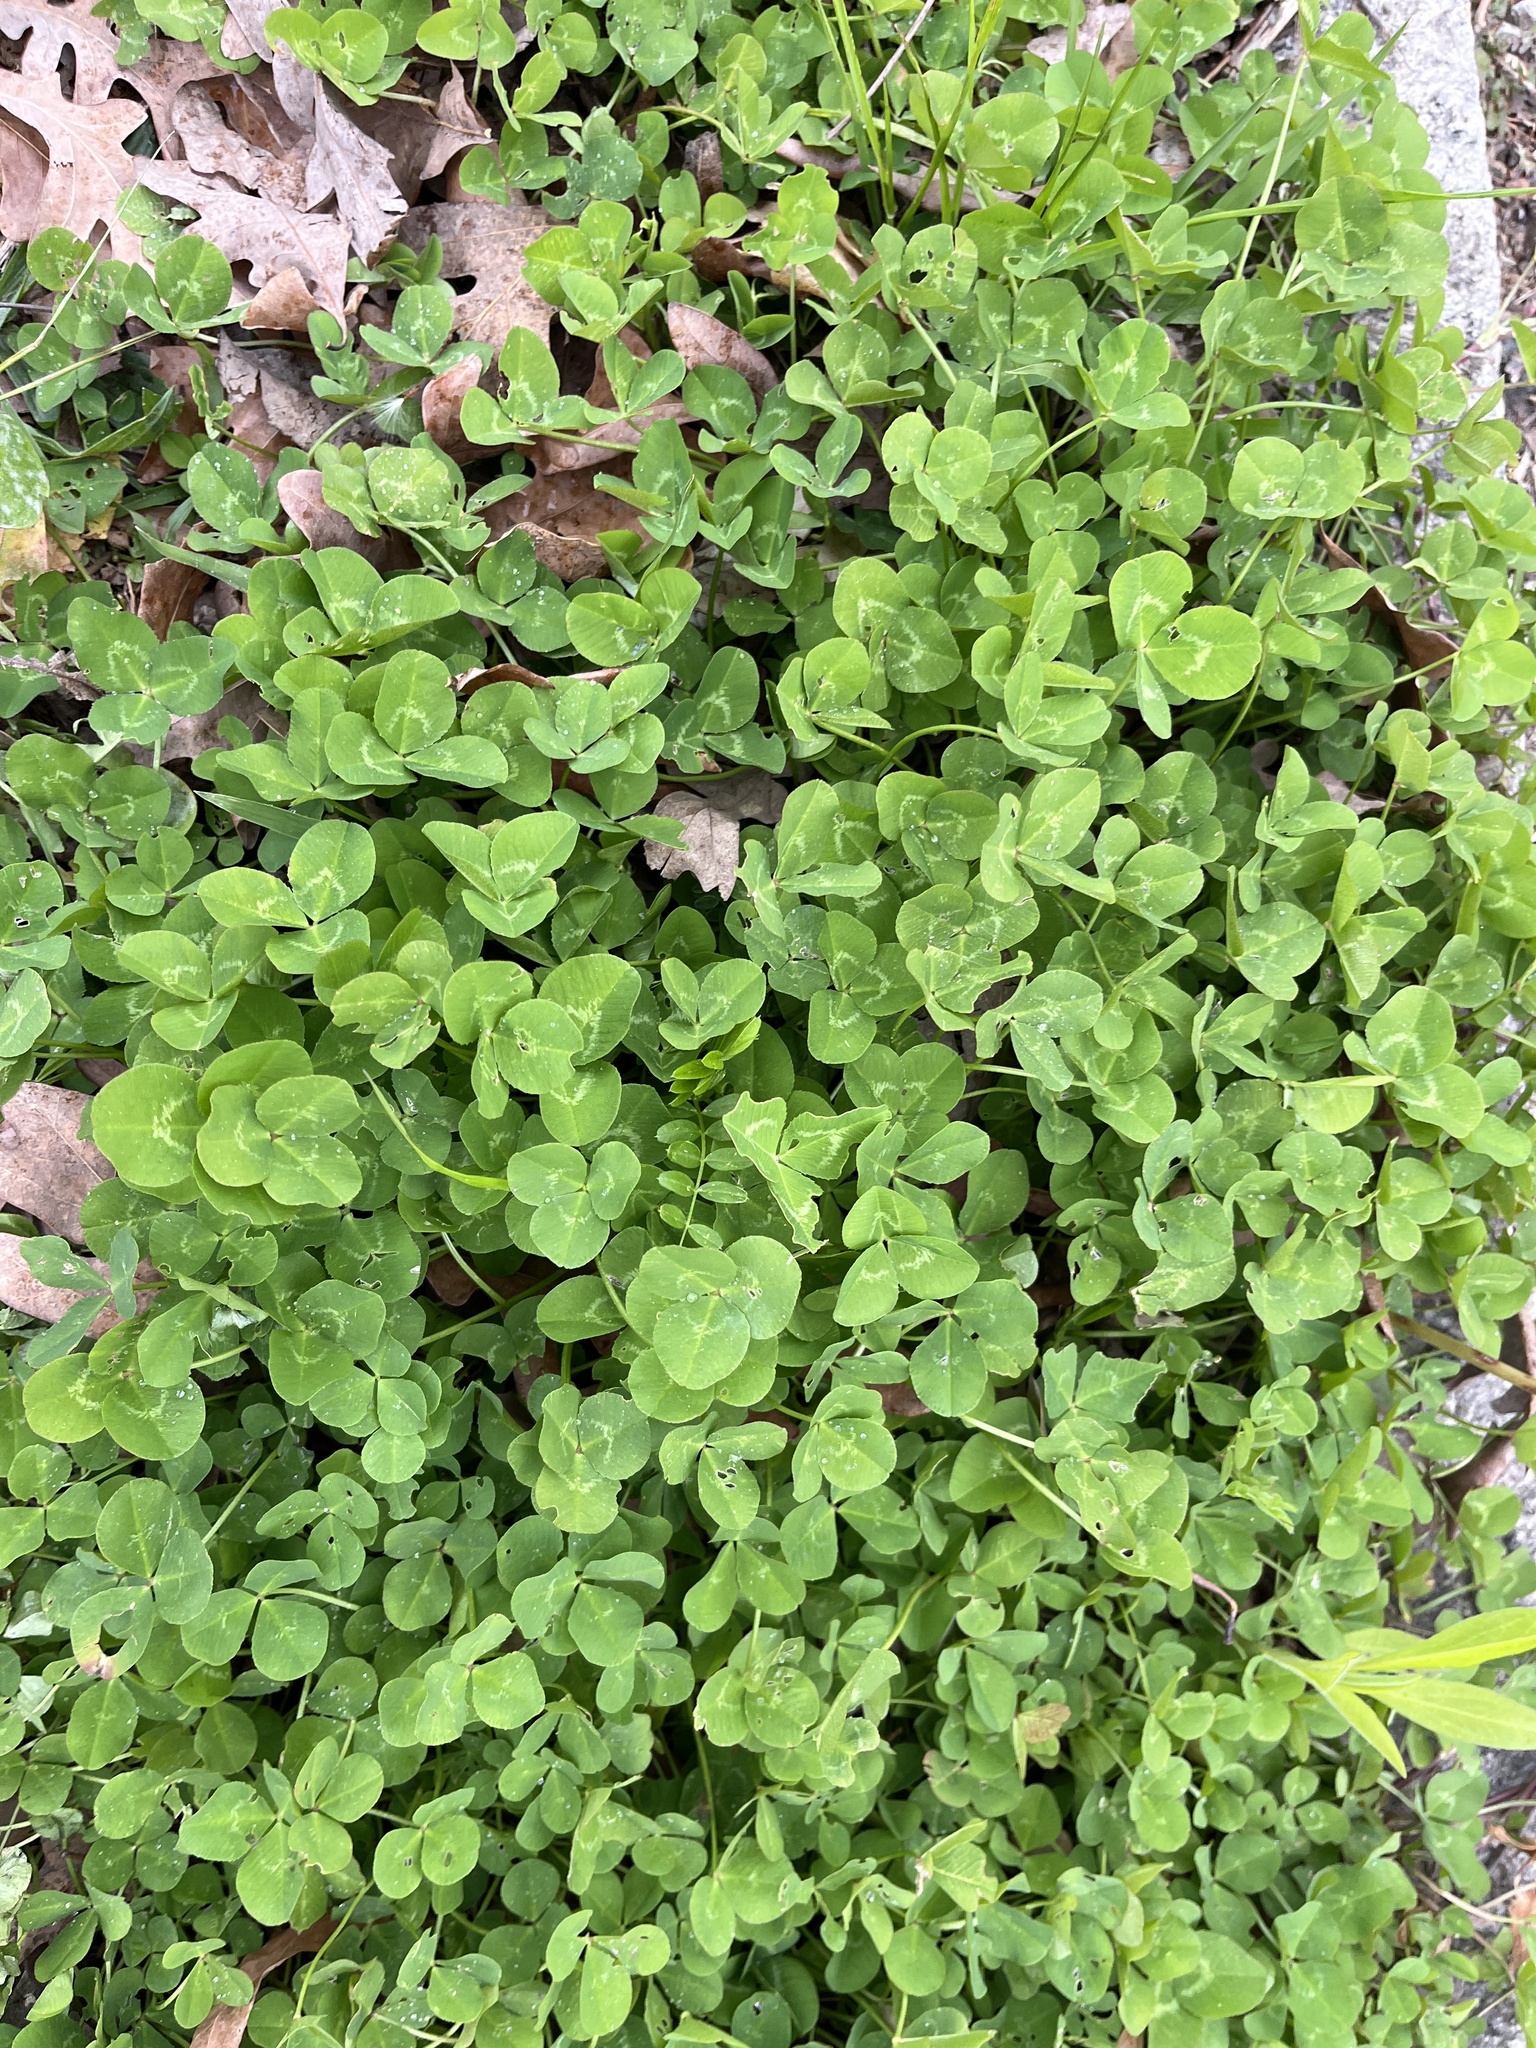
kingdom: Plantae
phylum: Tracheophyta
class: Magnoliopsida
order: Fabales
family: Fabaceae
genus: Trifolium
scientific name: Trifolium repens
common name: White clover
